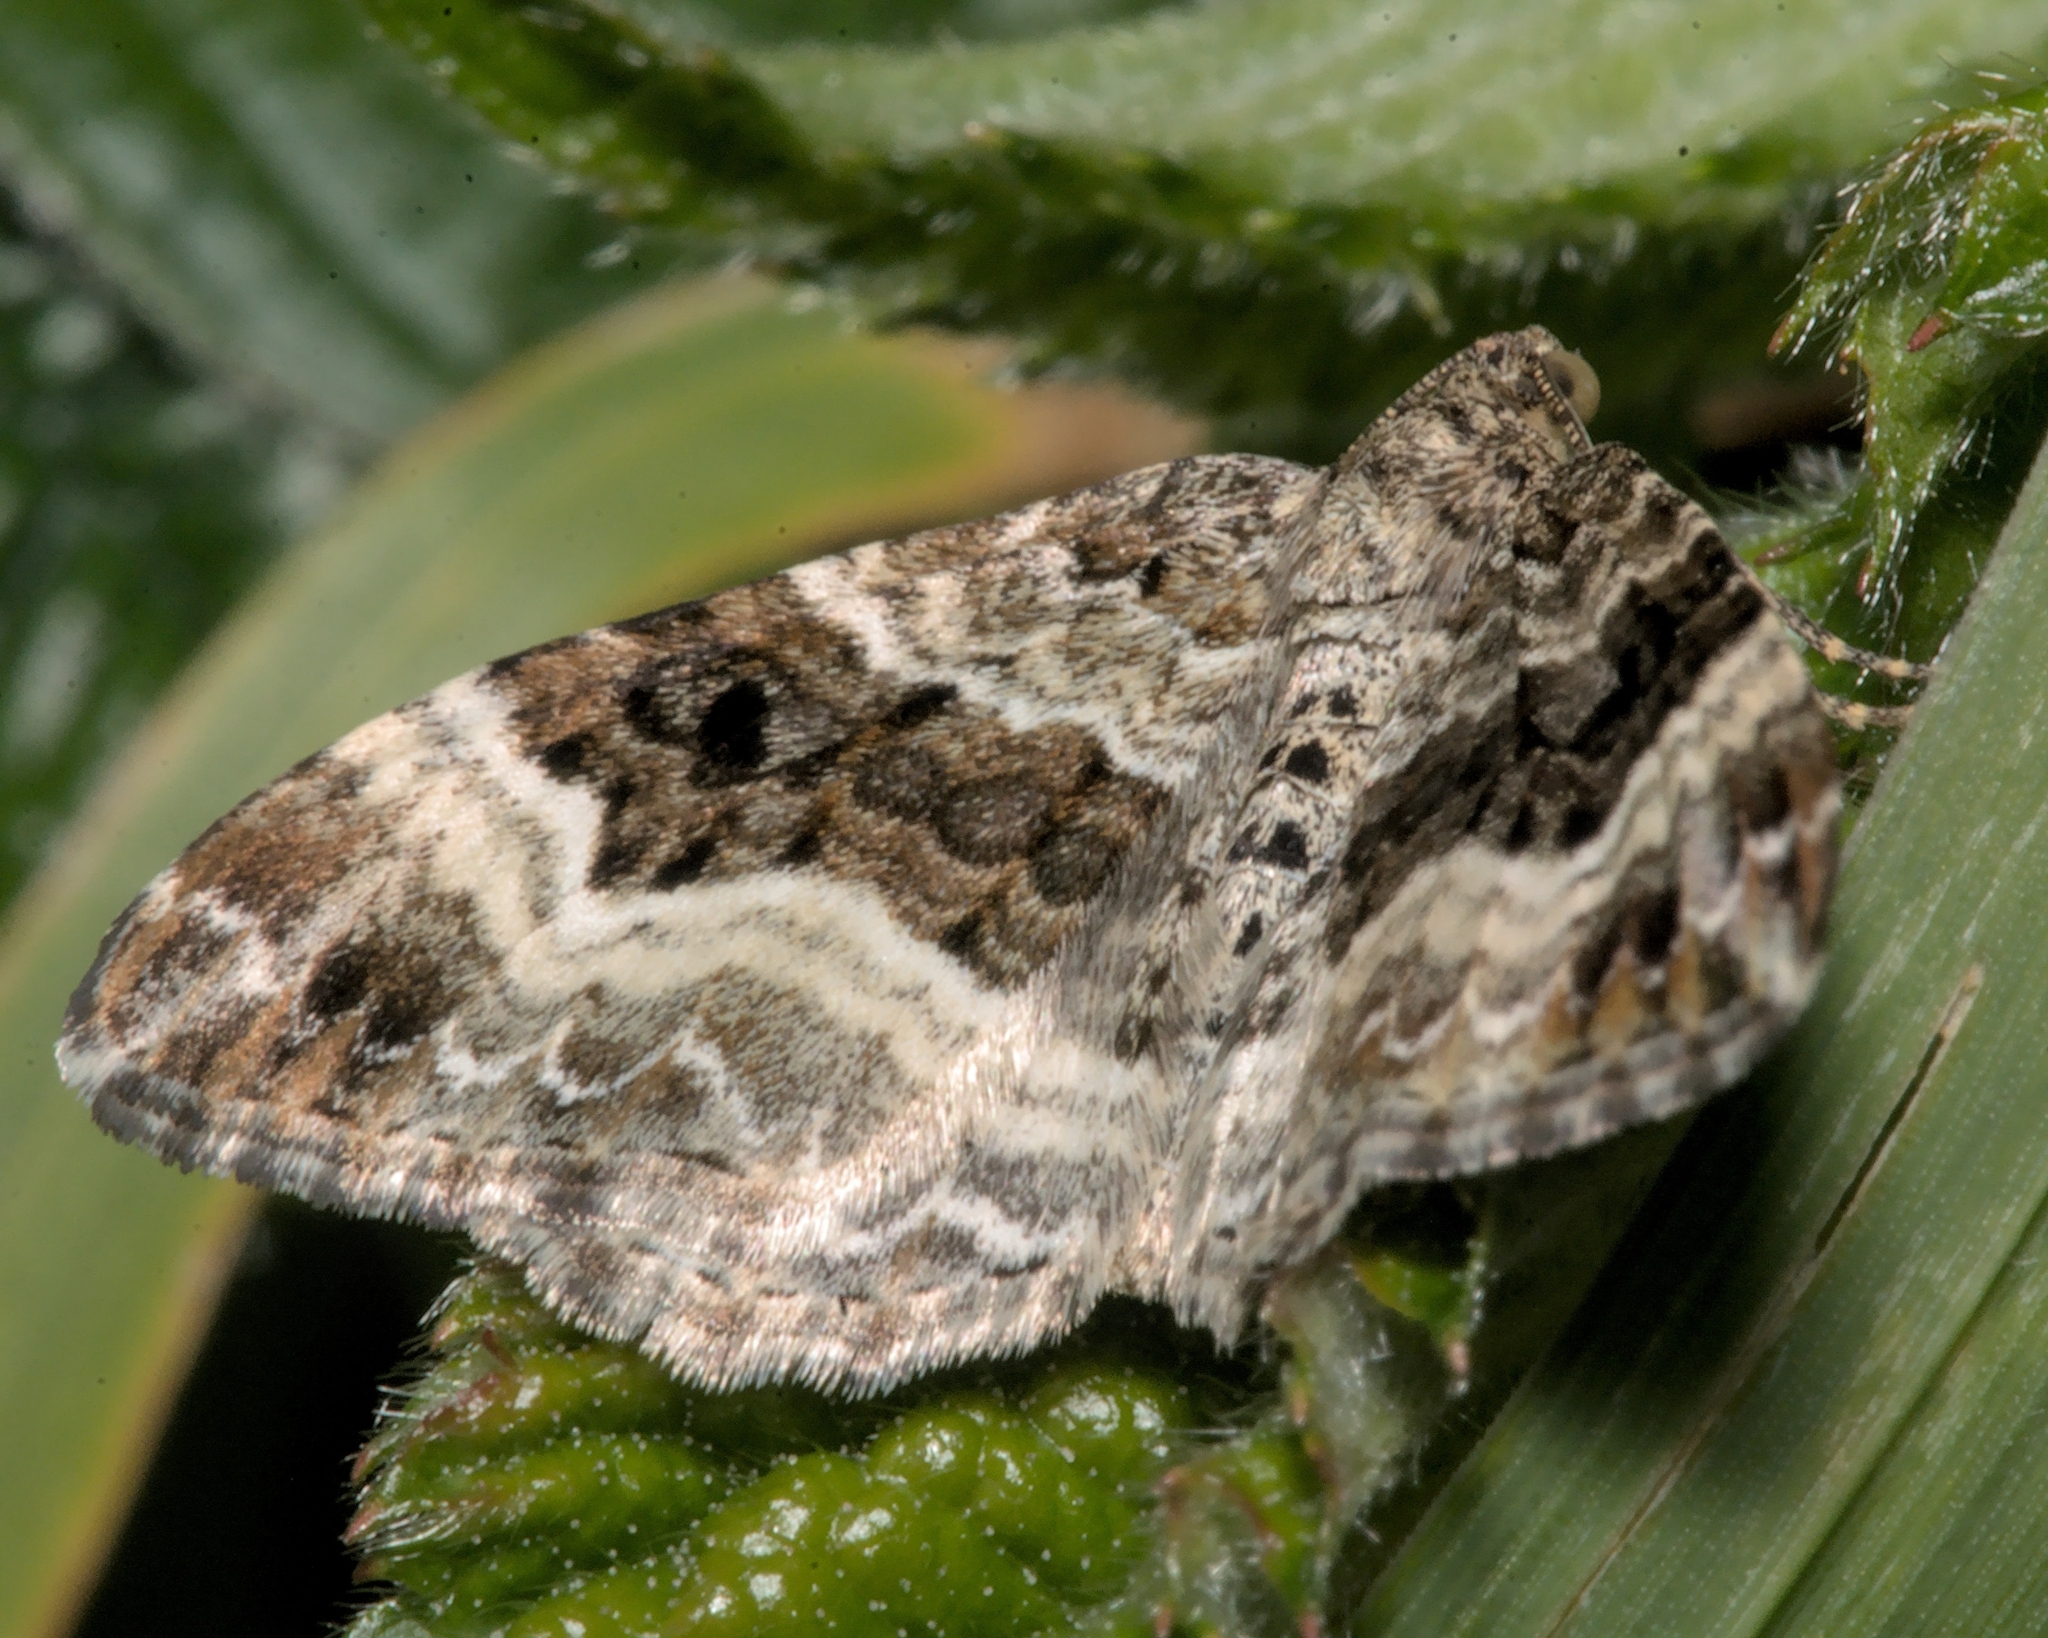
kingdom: Animalia
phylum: Arthropoda
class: Insecta
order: Lepidoptera
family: Geometridae
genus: Epirrhoe
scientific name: Epirrhoe alternata
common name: Common carpet
